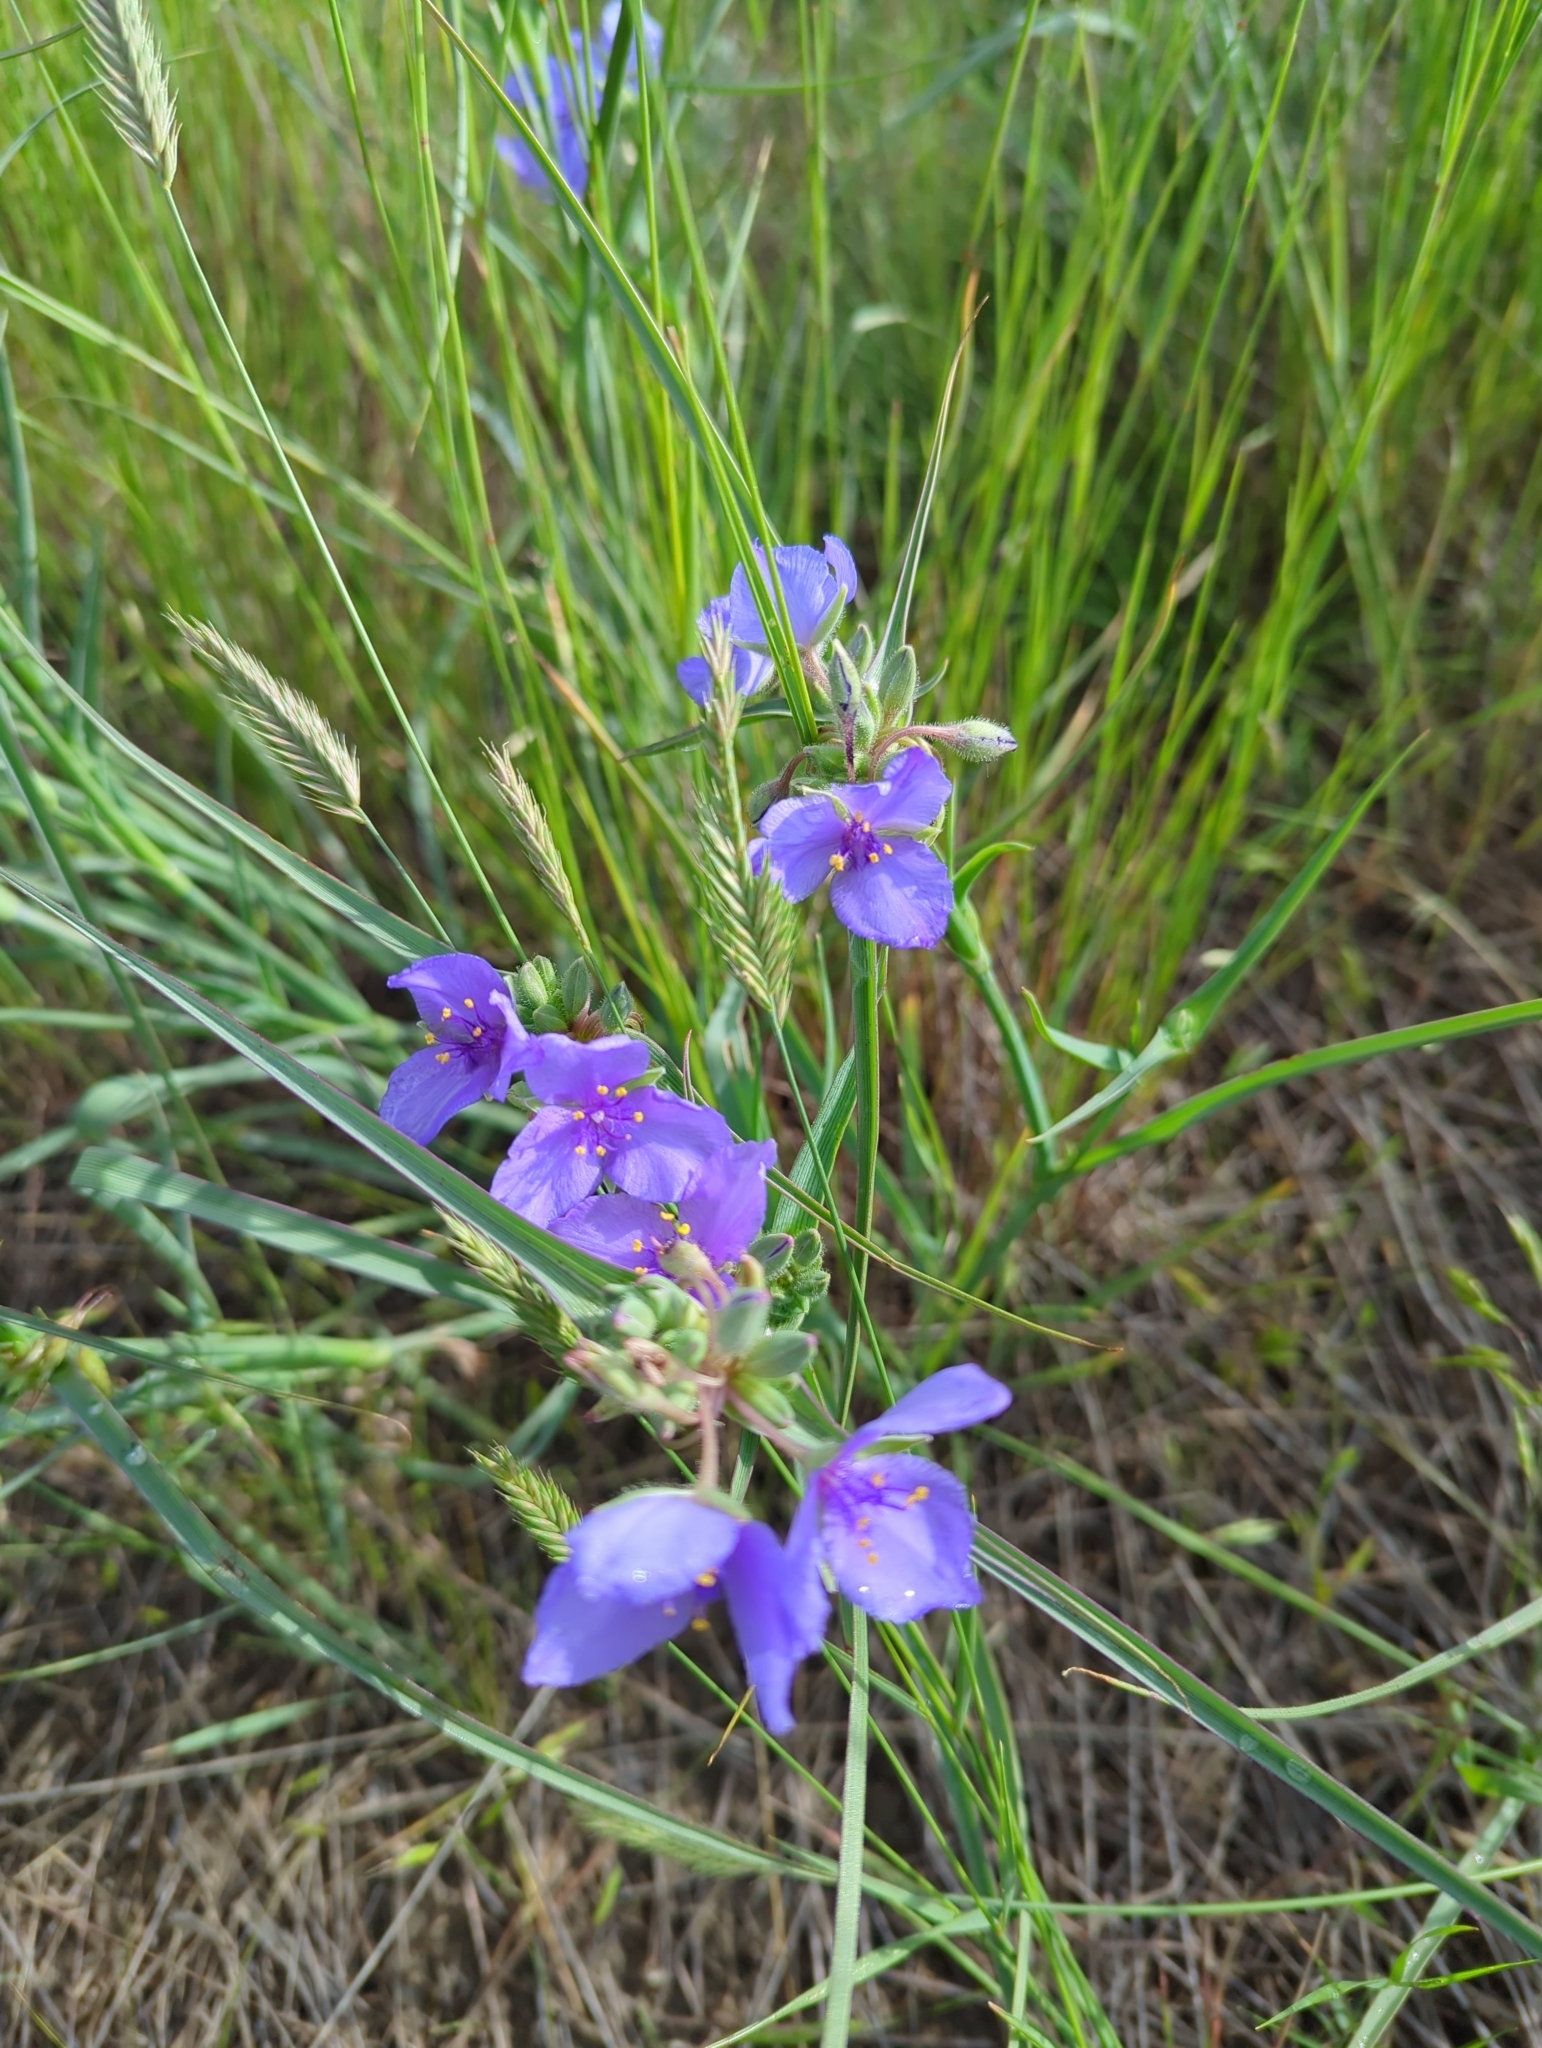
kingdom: Plantae
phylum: Tracheophyta
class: Liliopsida
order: Commelinales
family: Commelinaceae
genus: Tradescantia
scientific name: Tradescantia occidentalis
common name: Prairie spiderwort
